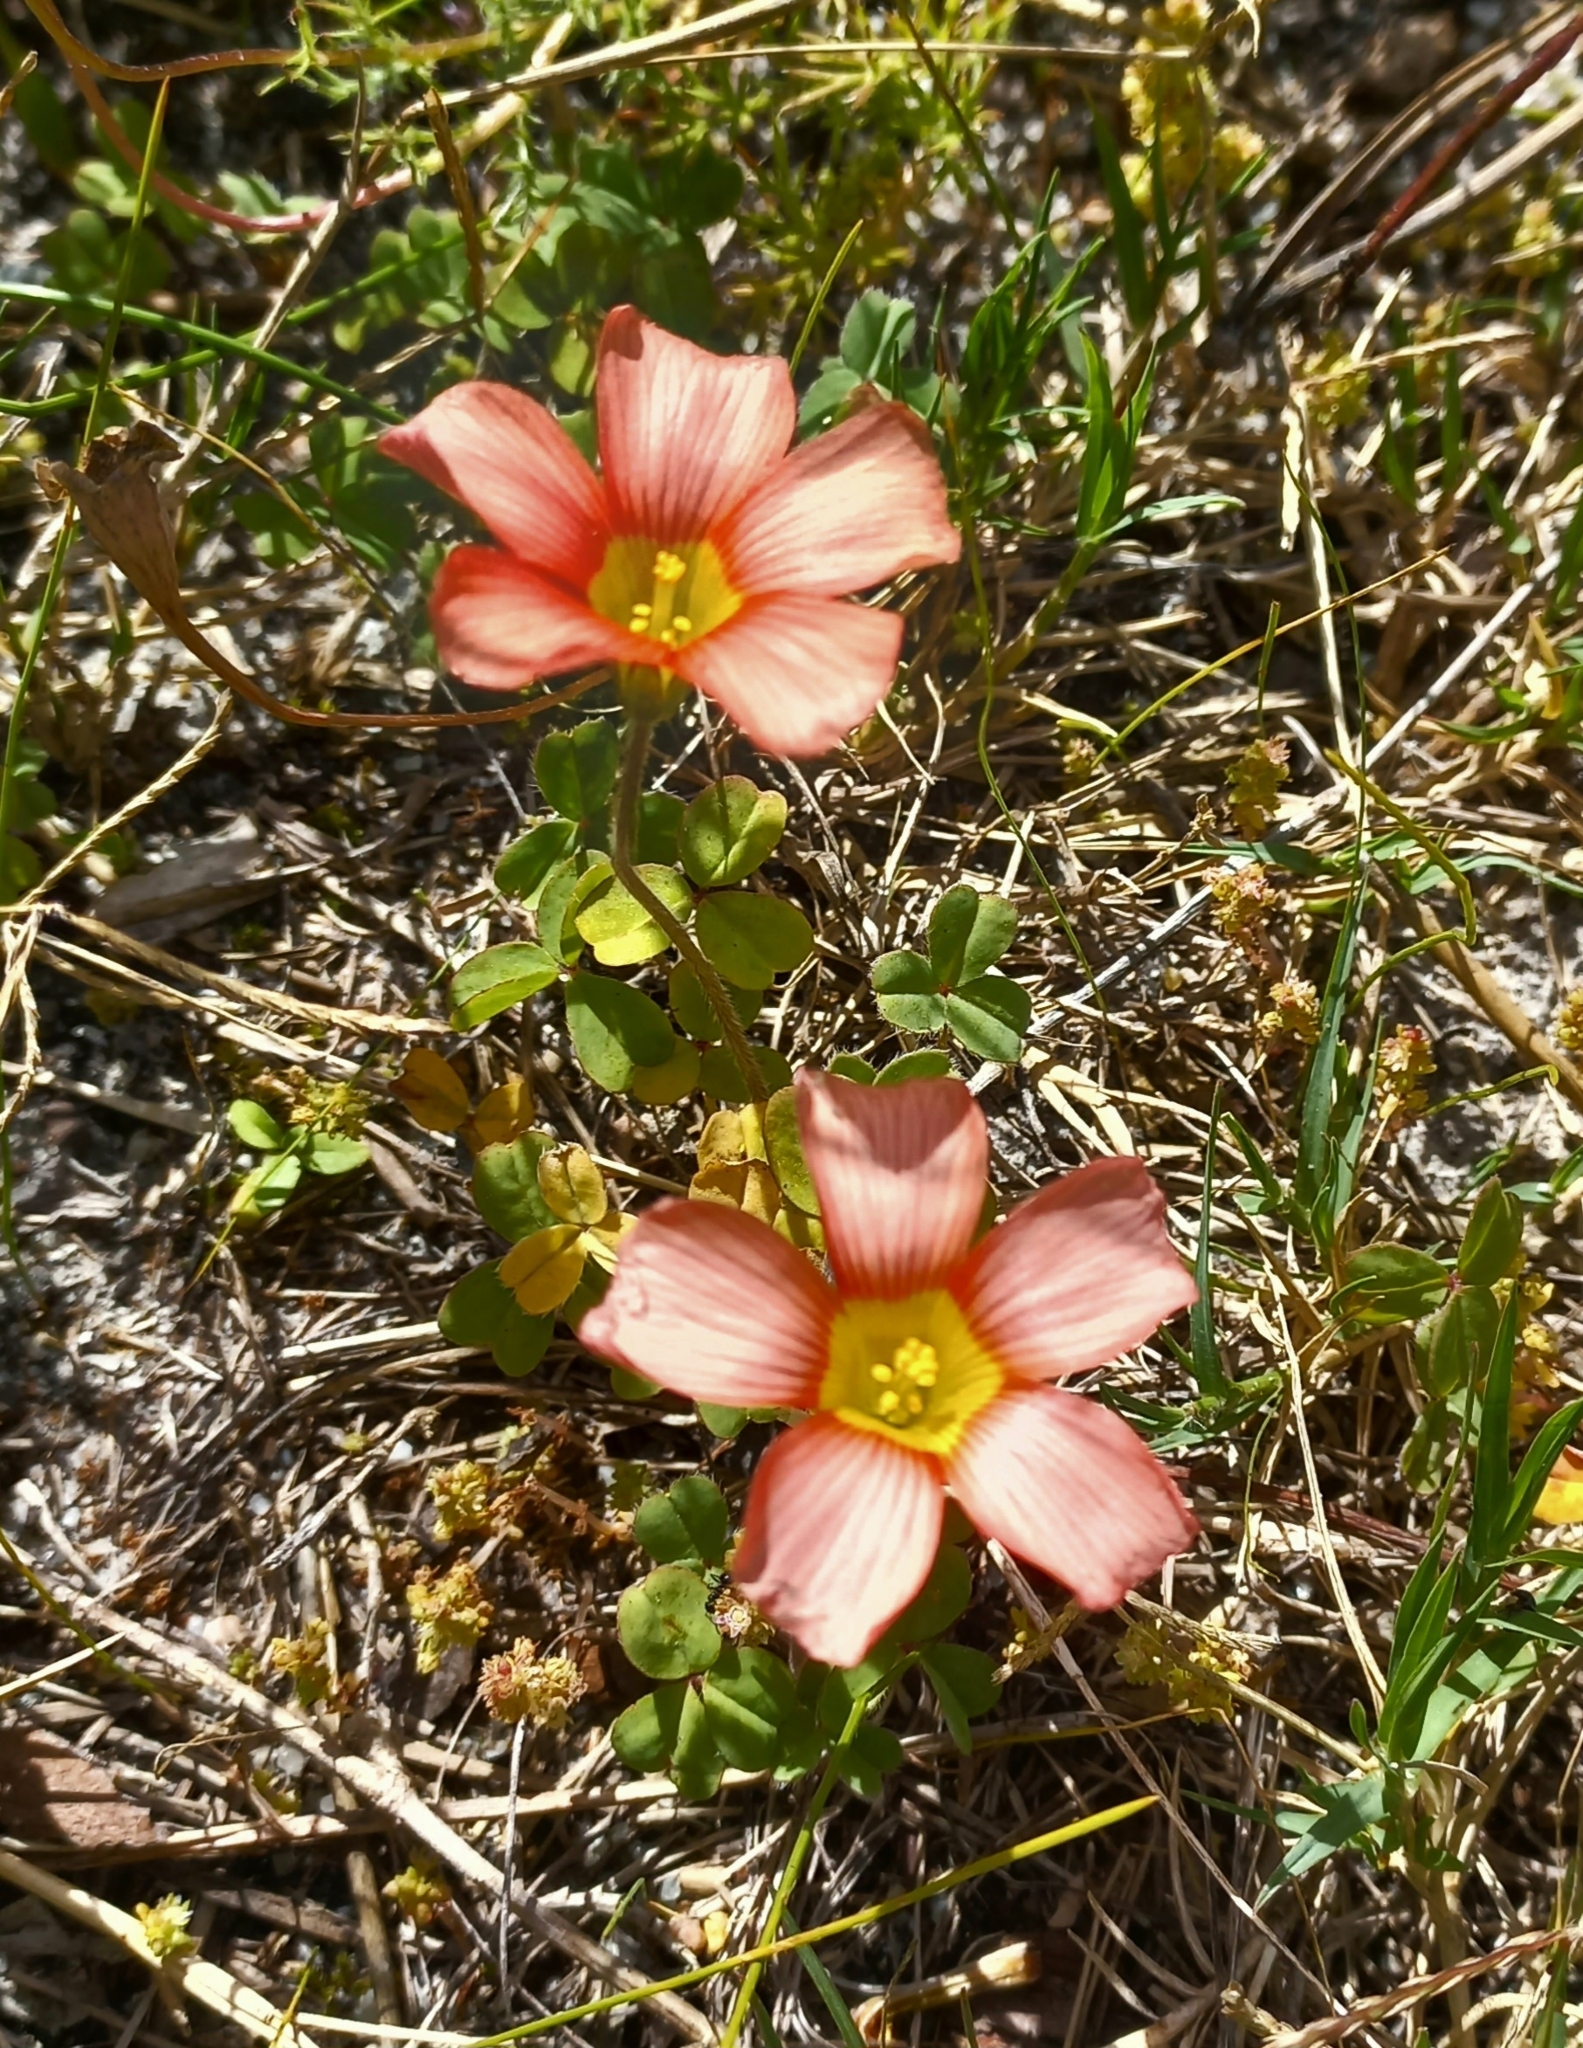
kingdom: Plantae
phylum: Tracheophyta
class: Magnoliopsida
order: Oxalidales
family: Oxalidaceae
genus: Oxalis
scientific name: Oxalis obtusa
